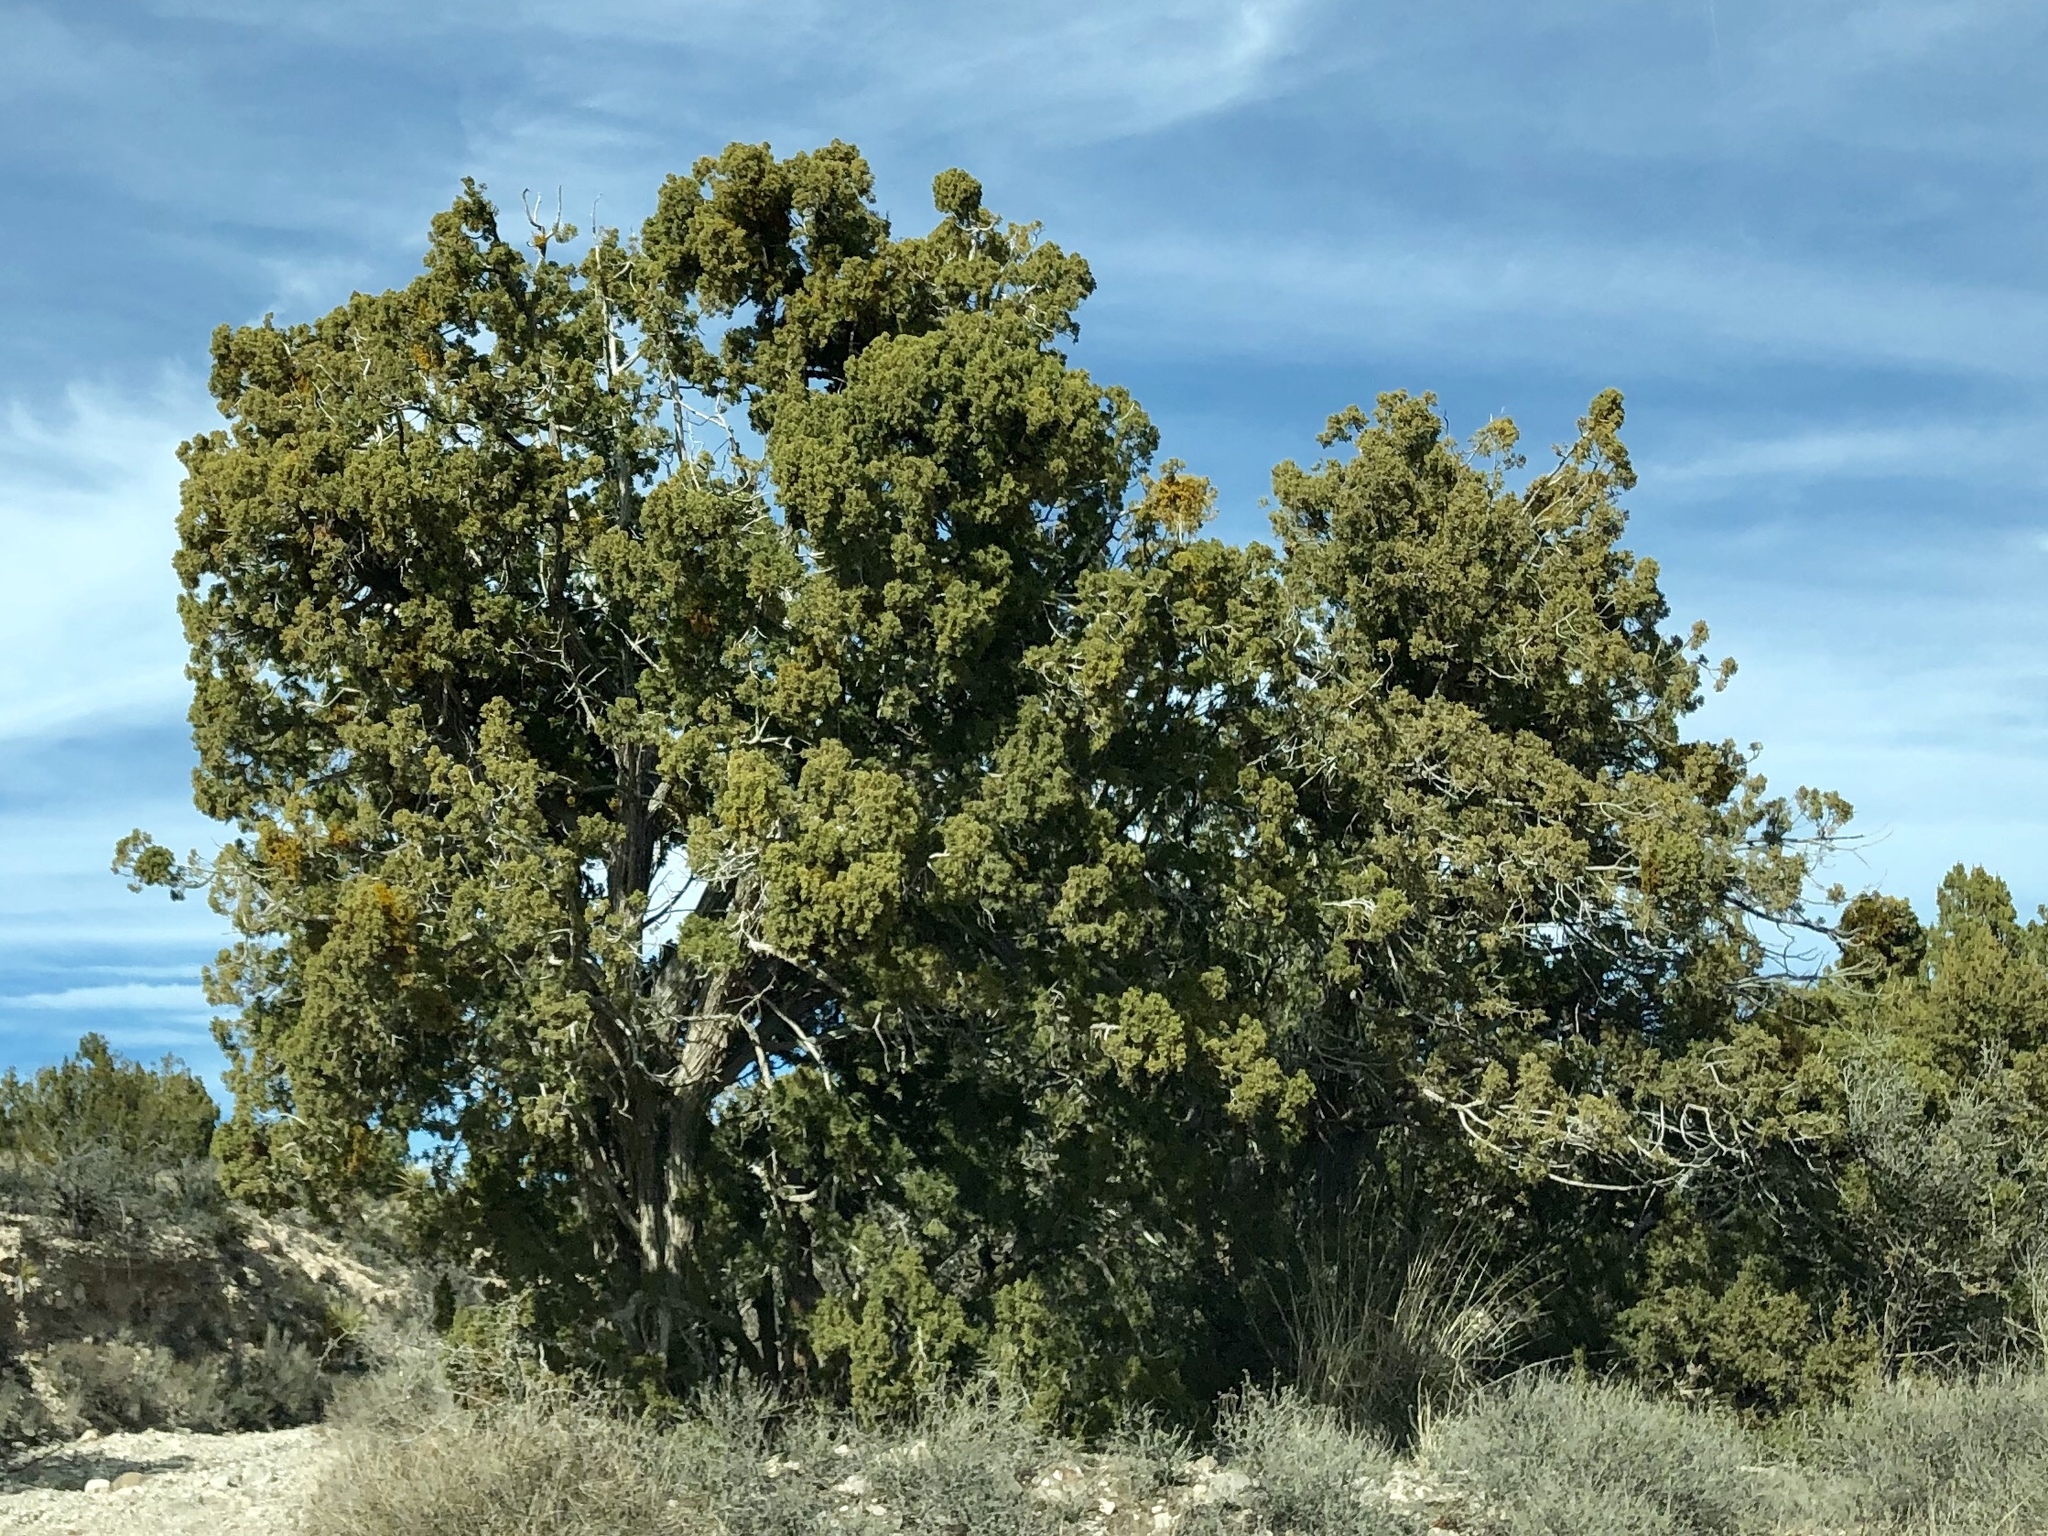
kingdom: Plantae
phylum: Tracheophyta
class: Pinopsida
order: Pinales
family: Cupressaceae
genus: Juniperus
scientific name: Juniperus monosperma
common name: One-seed juniper
